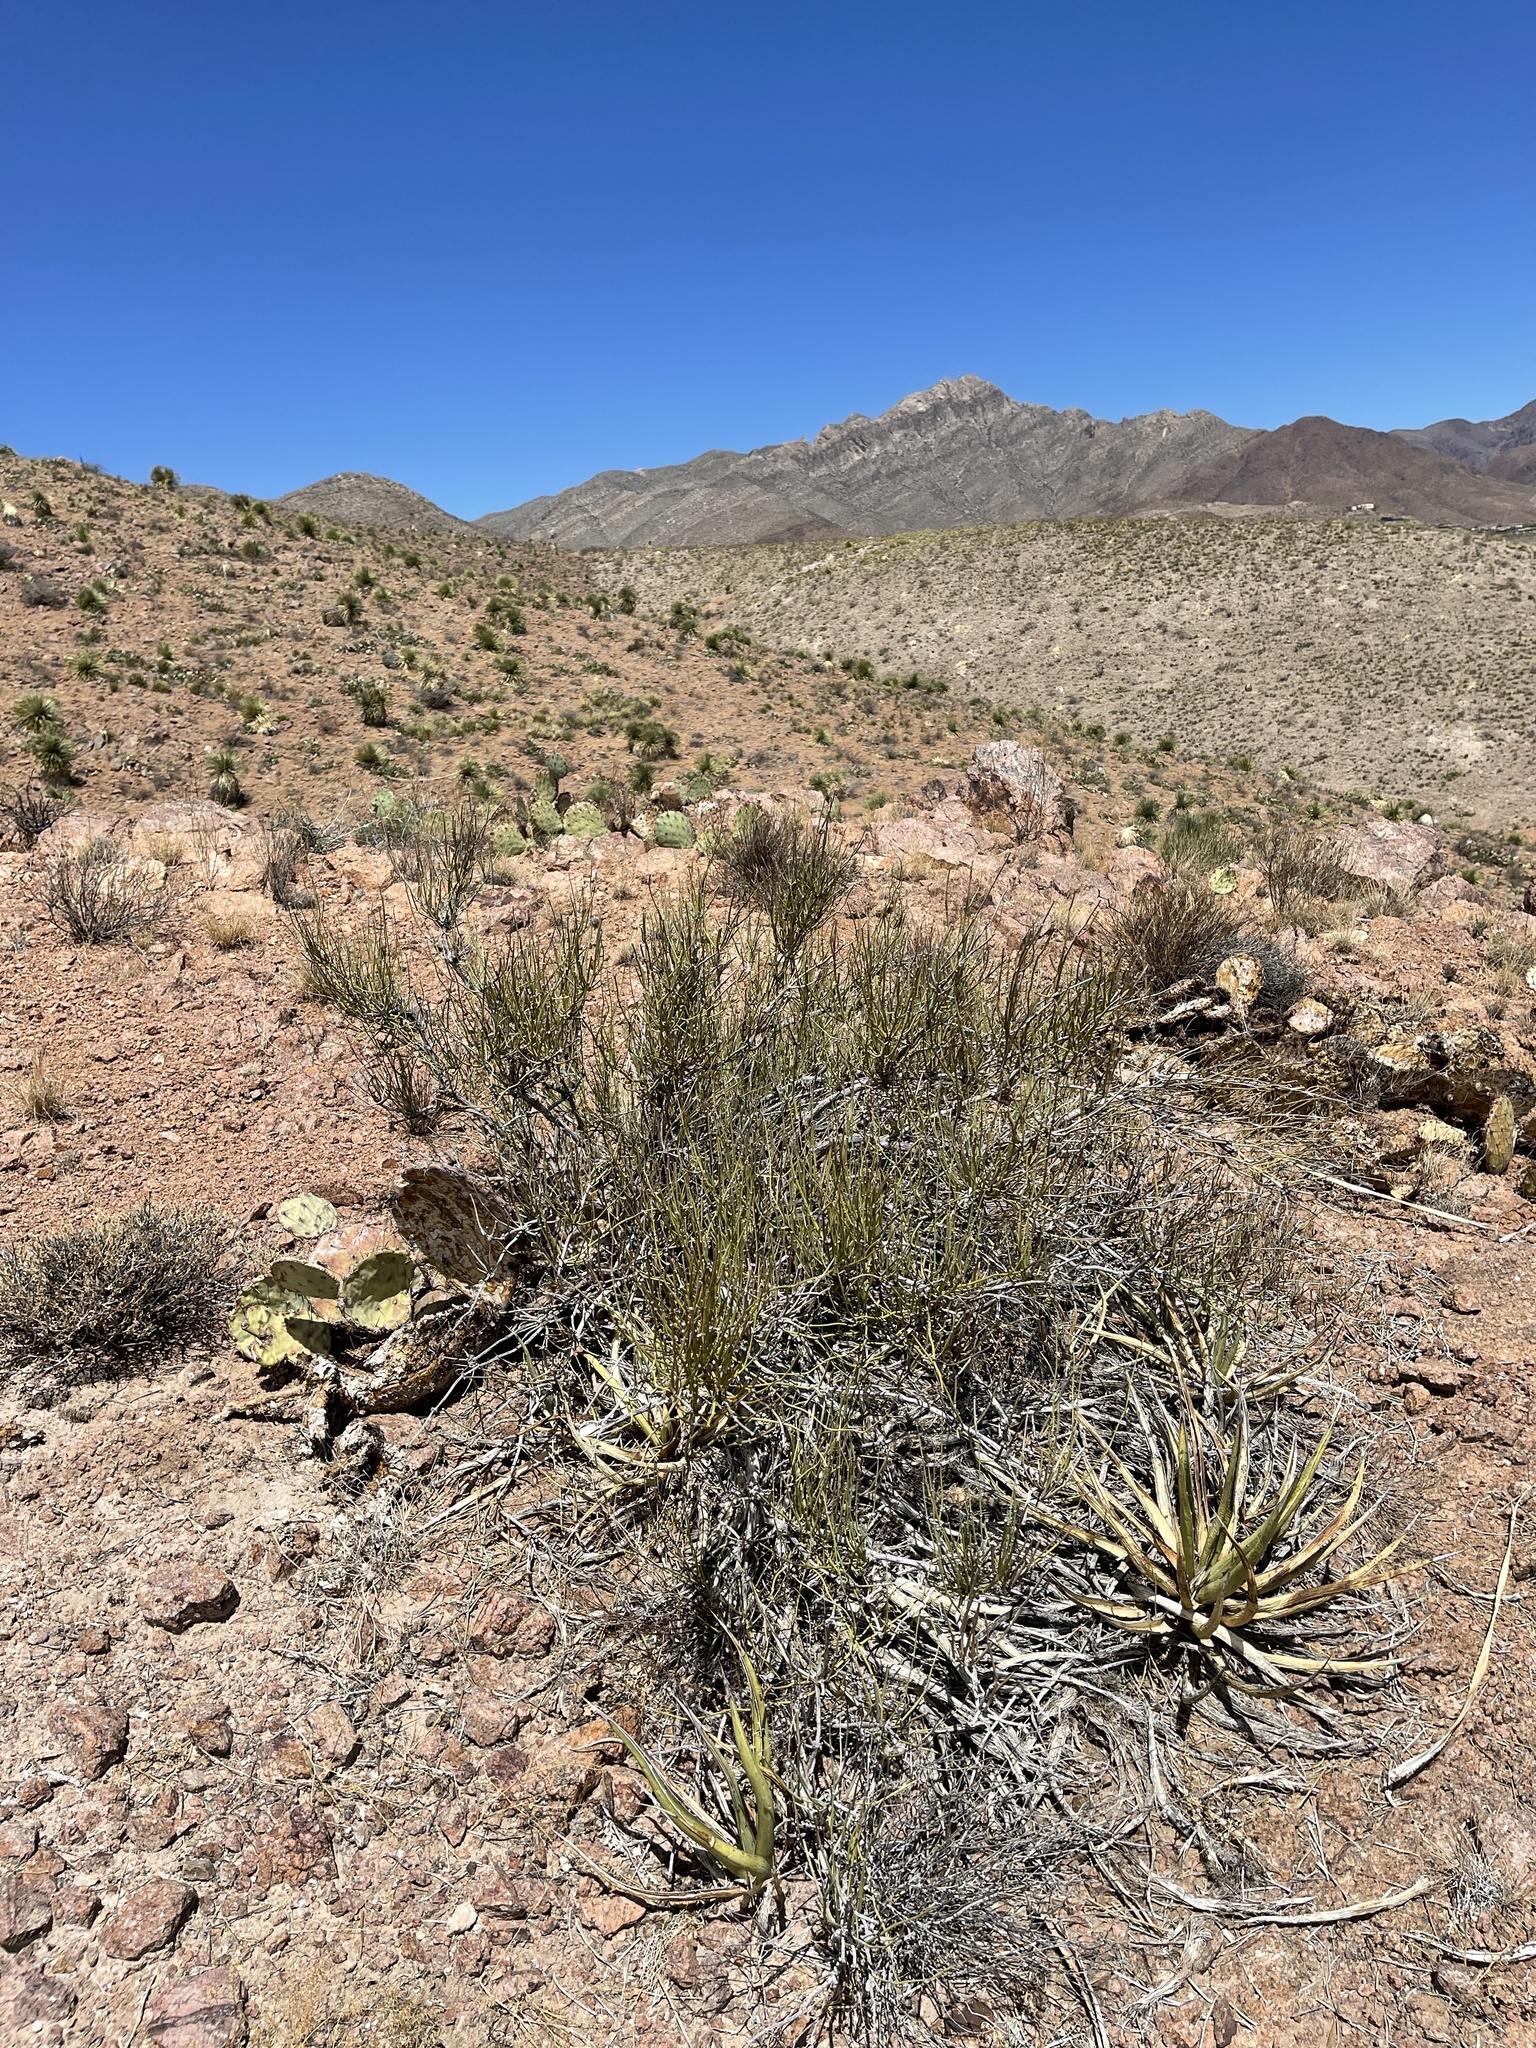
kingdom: Plantae
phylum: Tracheophyta
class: Gnetopsida
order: Ephedrales
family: Ephedraceae
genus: Ephedra
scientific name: Ephedra trifurca
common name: Mexican-tea
